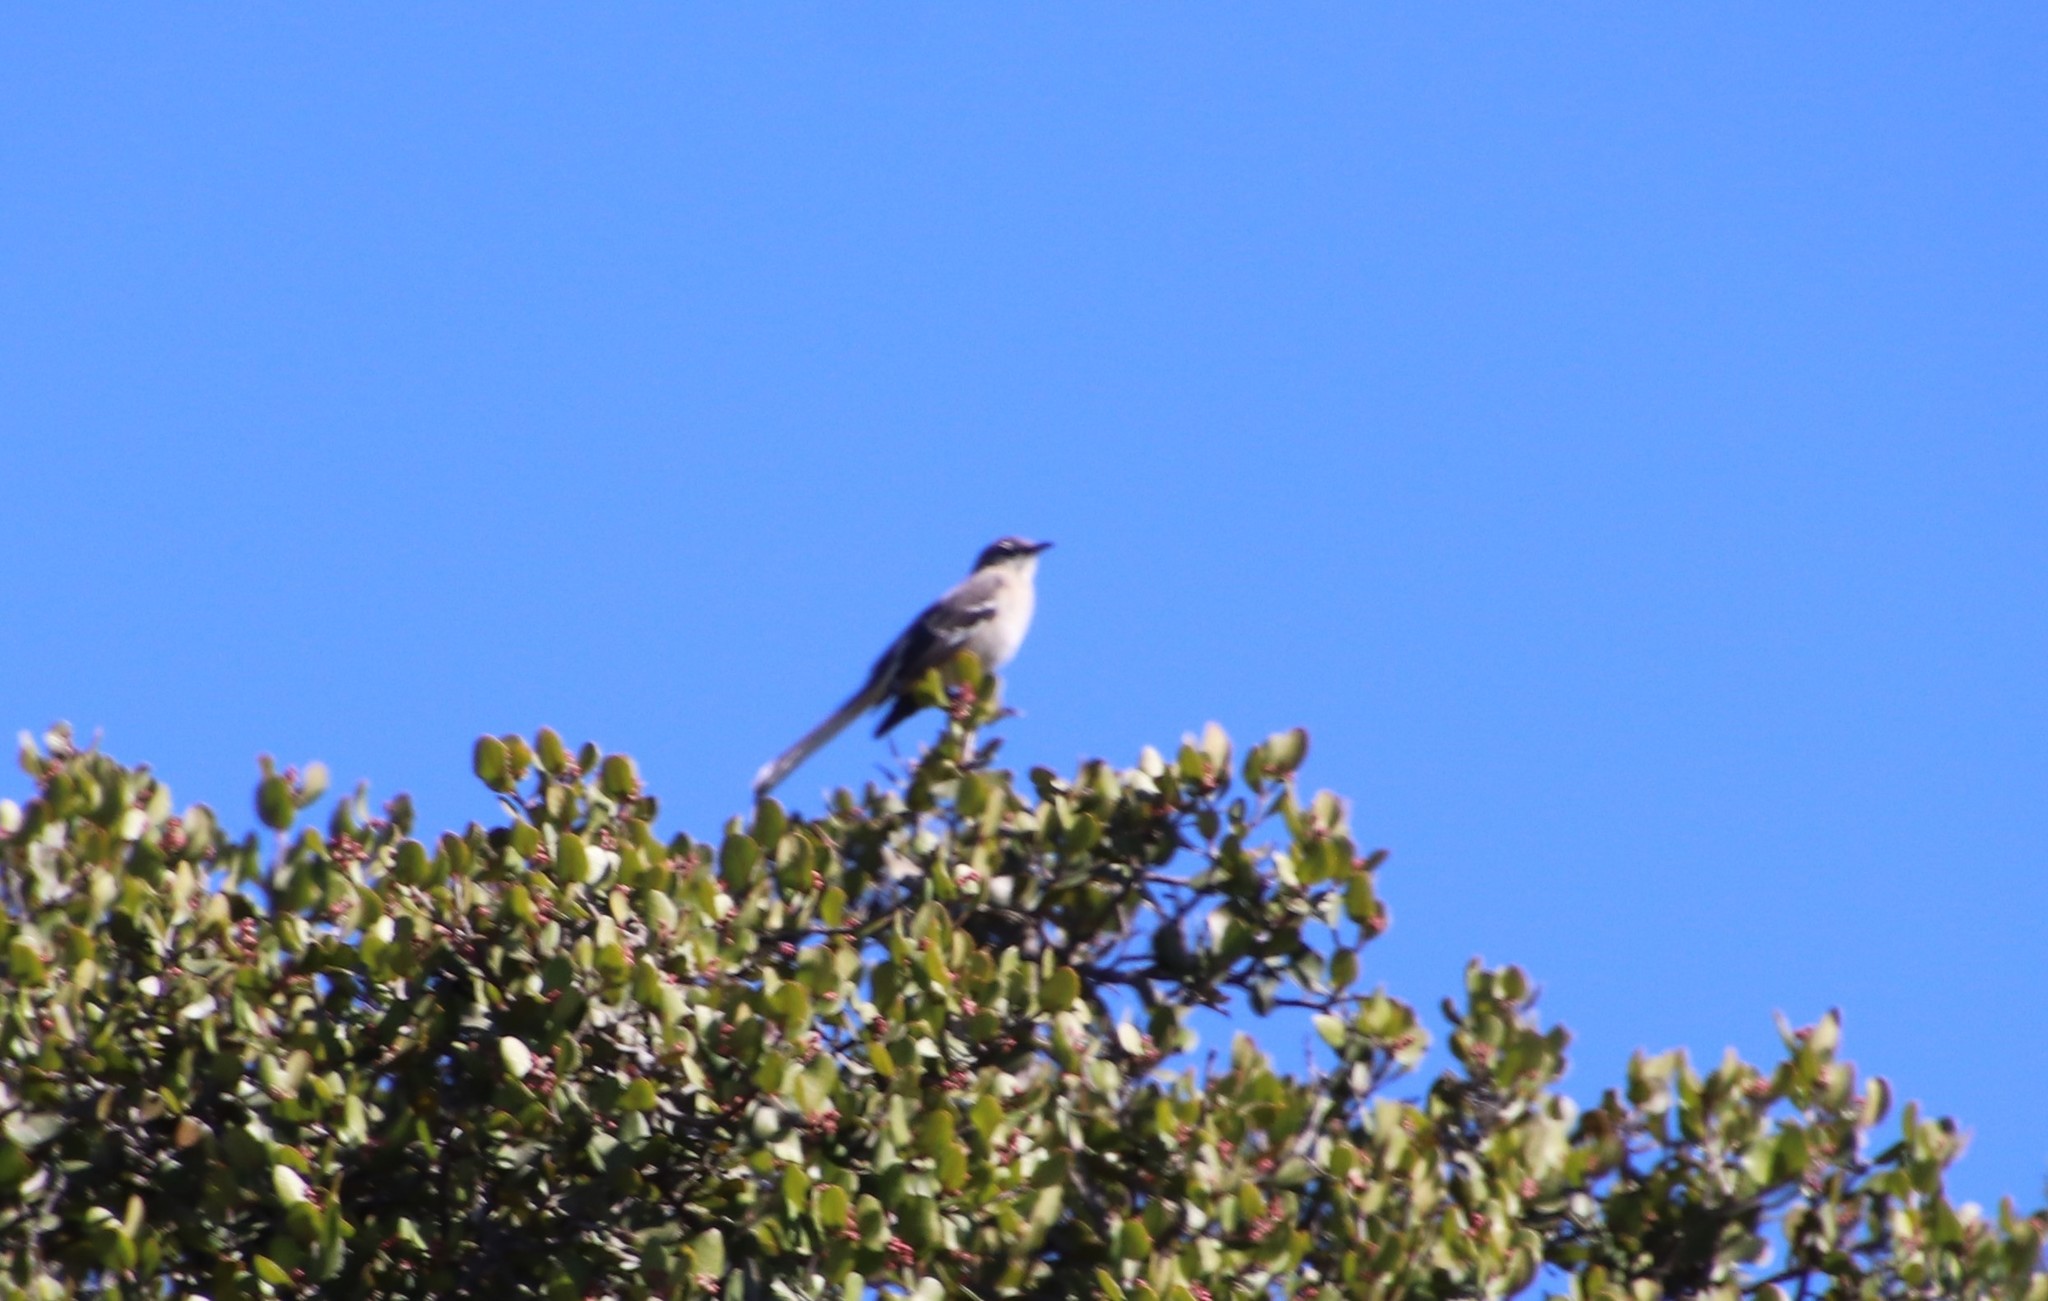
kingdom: Animalia
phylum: Chordata
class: Aves
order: Passeriformes
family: Mimidae
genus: Mimus
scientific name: Mimus polyglottos
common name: Northern mockingbird
